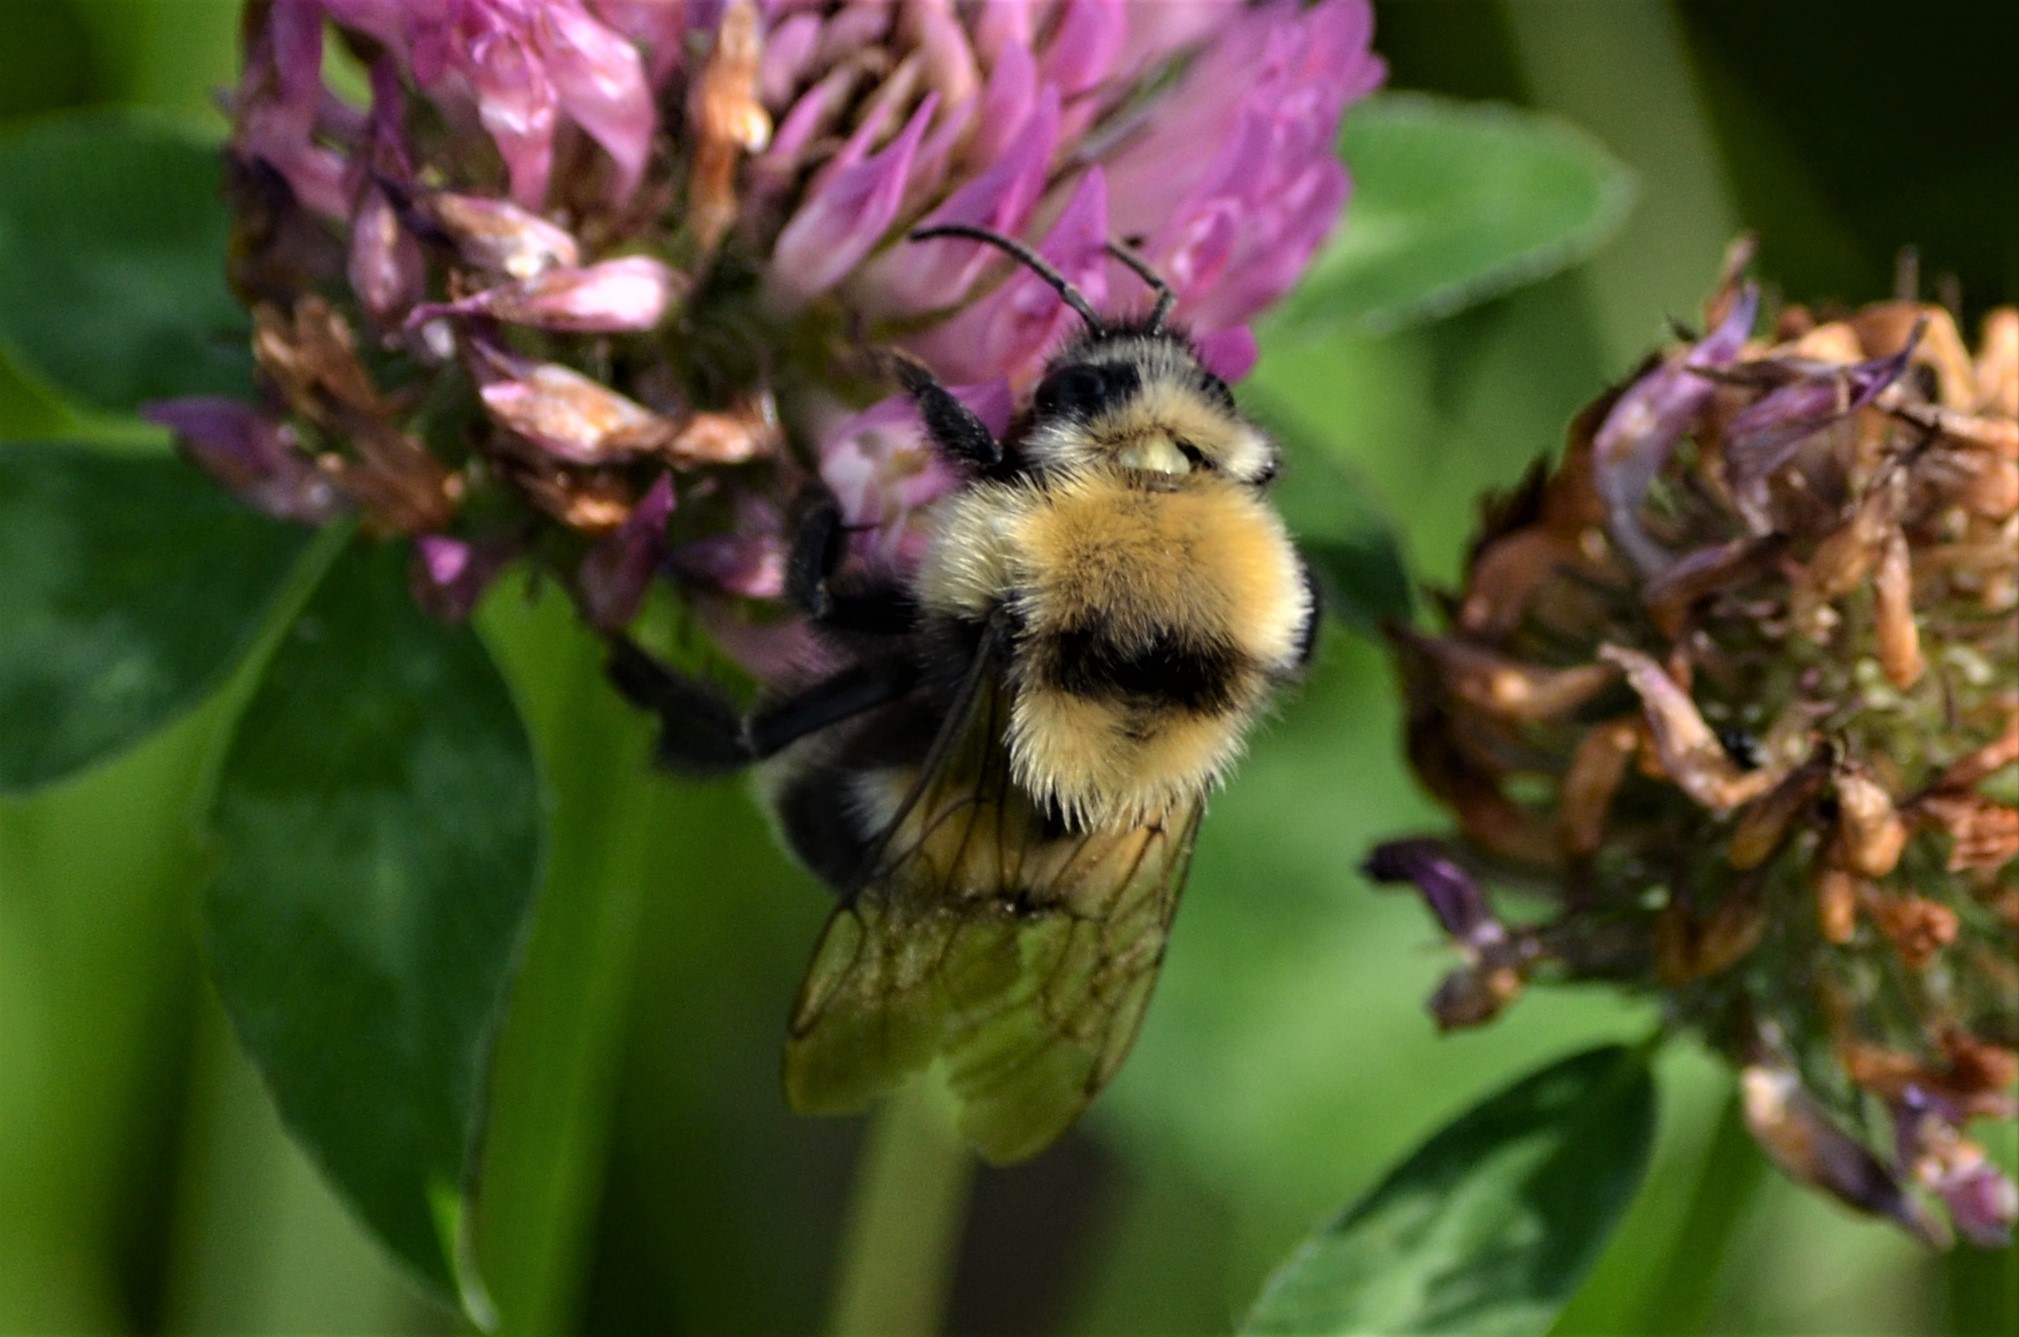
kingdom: Animalia
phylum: Arthropoda
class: Insecta
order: Hymenoptera
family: Apidae
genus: Bombus
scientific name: Bombus argillaceus
